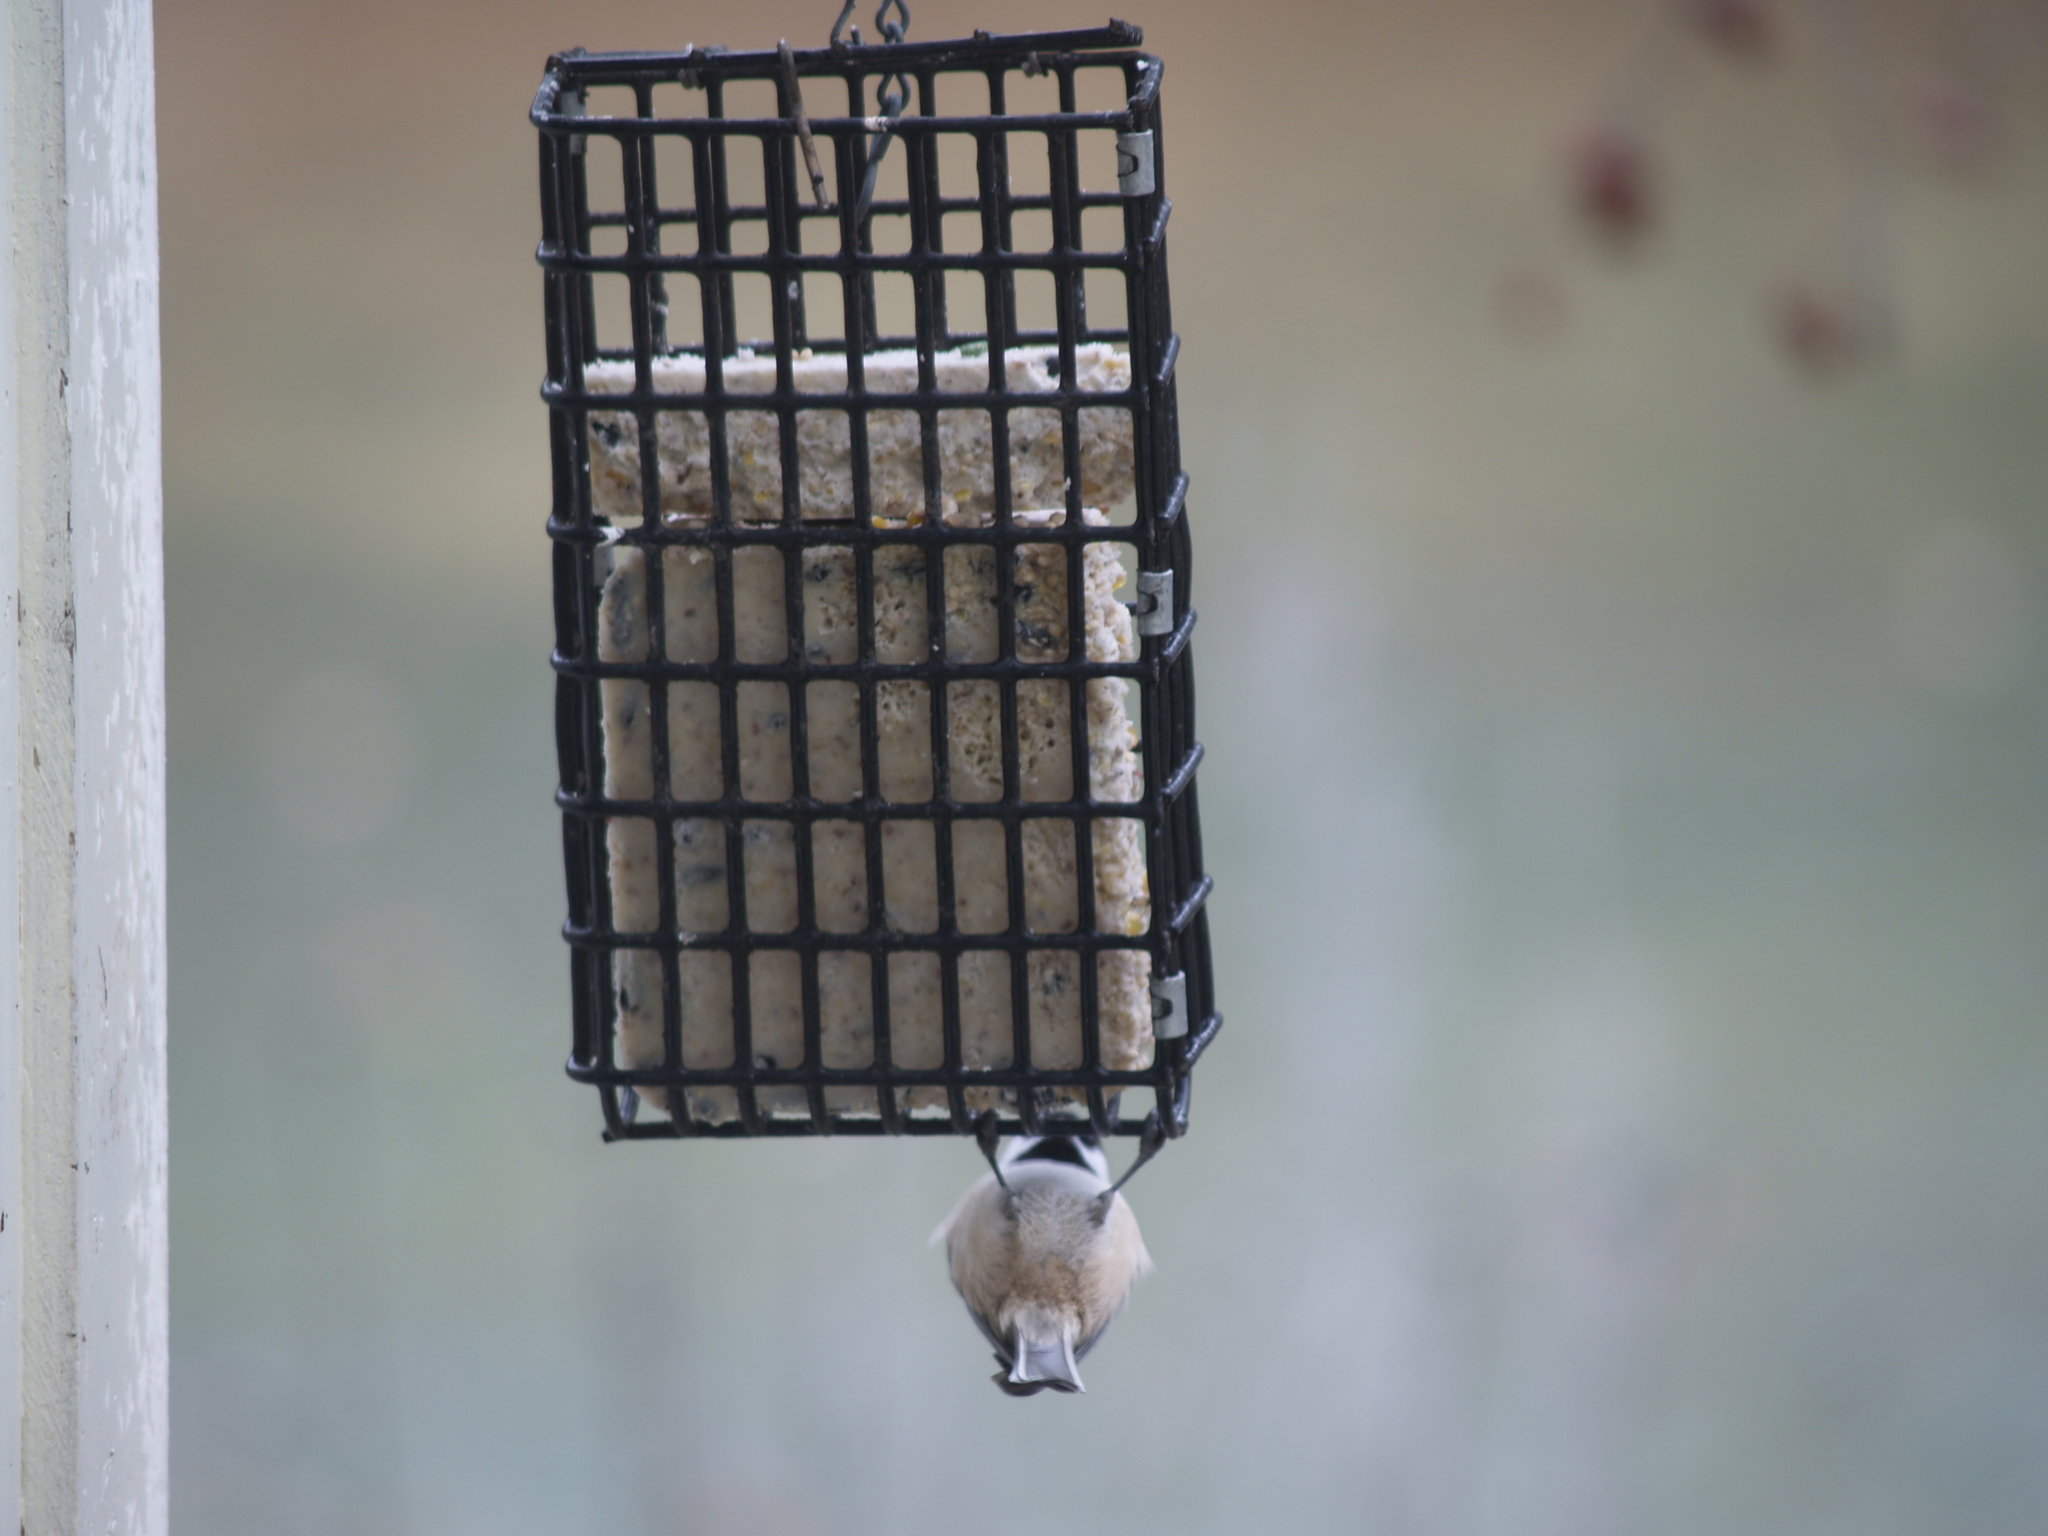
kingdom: Animalia
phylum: Chordata
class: Aves
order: Passeriformes
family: Paridae
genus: Poecile
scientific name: Poecile atricapillus
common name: Black-capped chickadee
